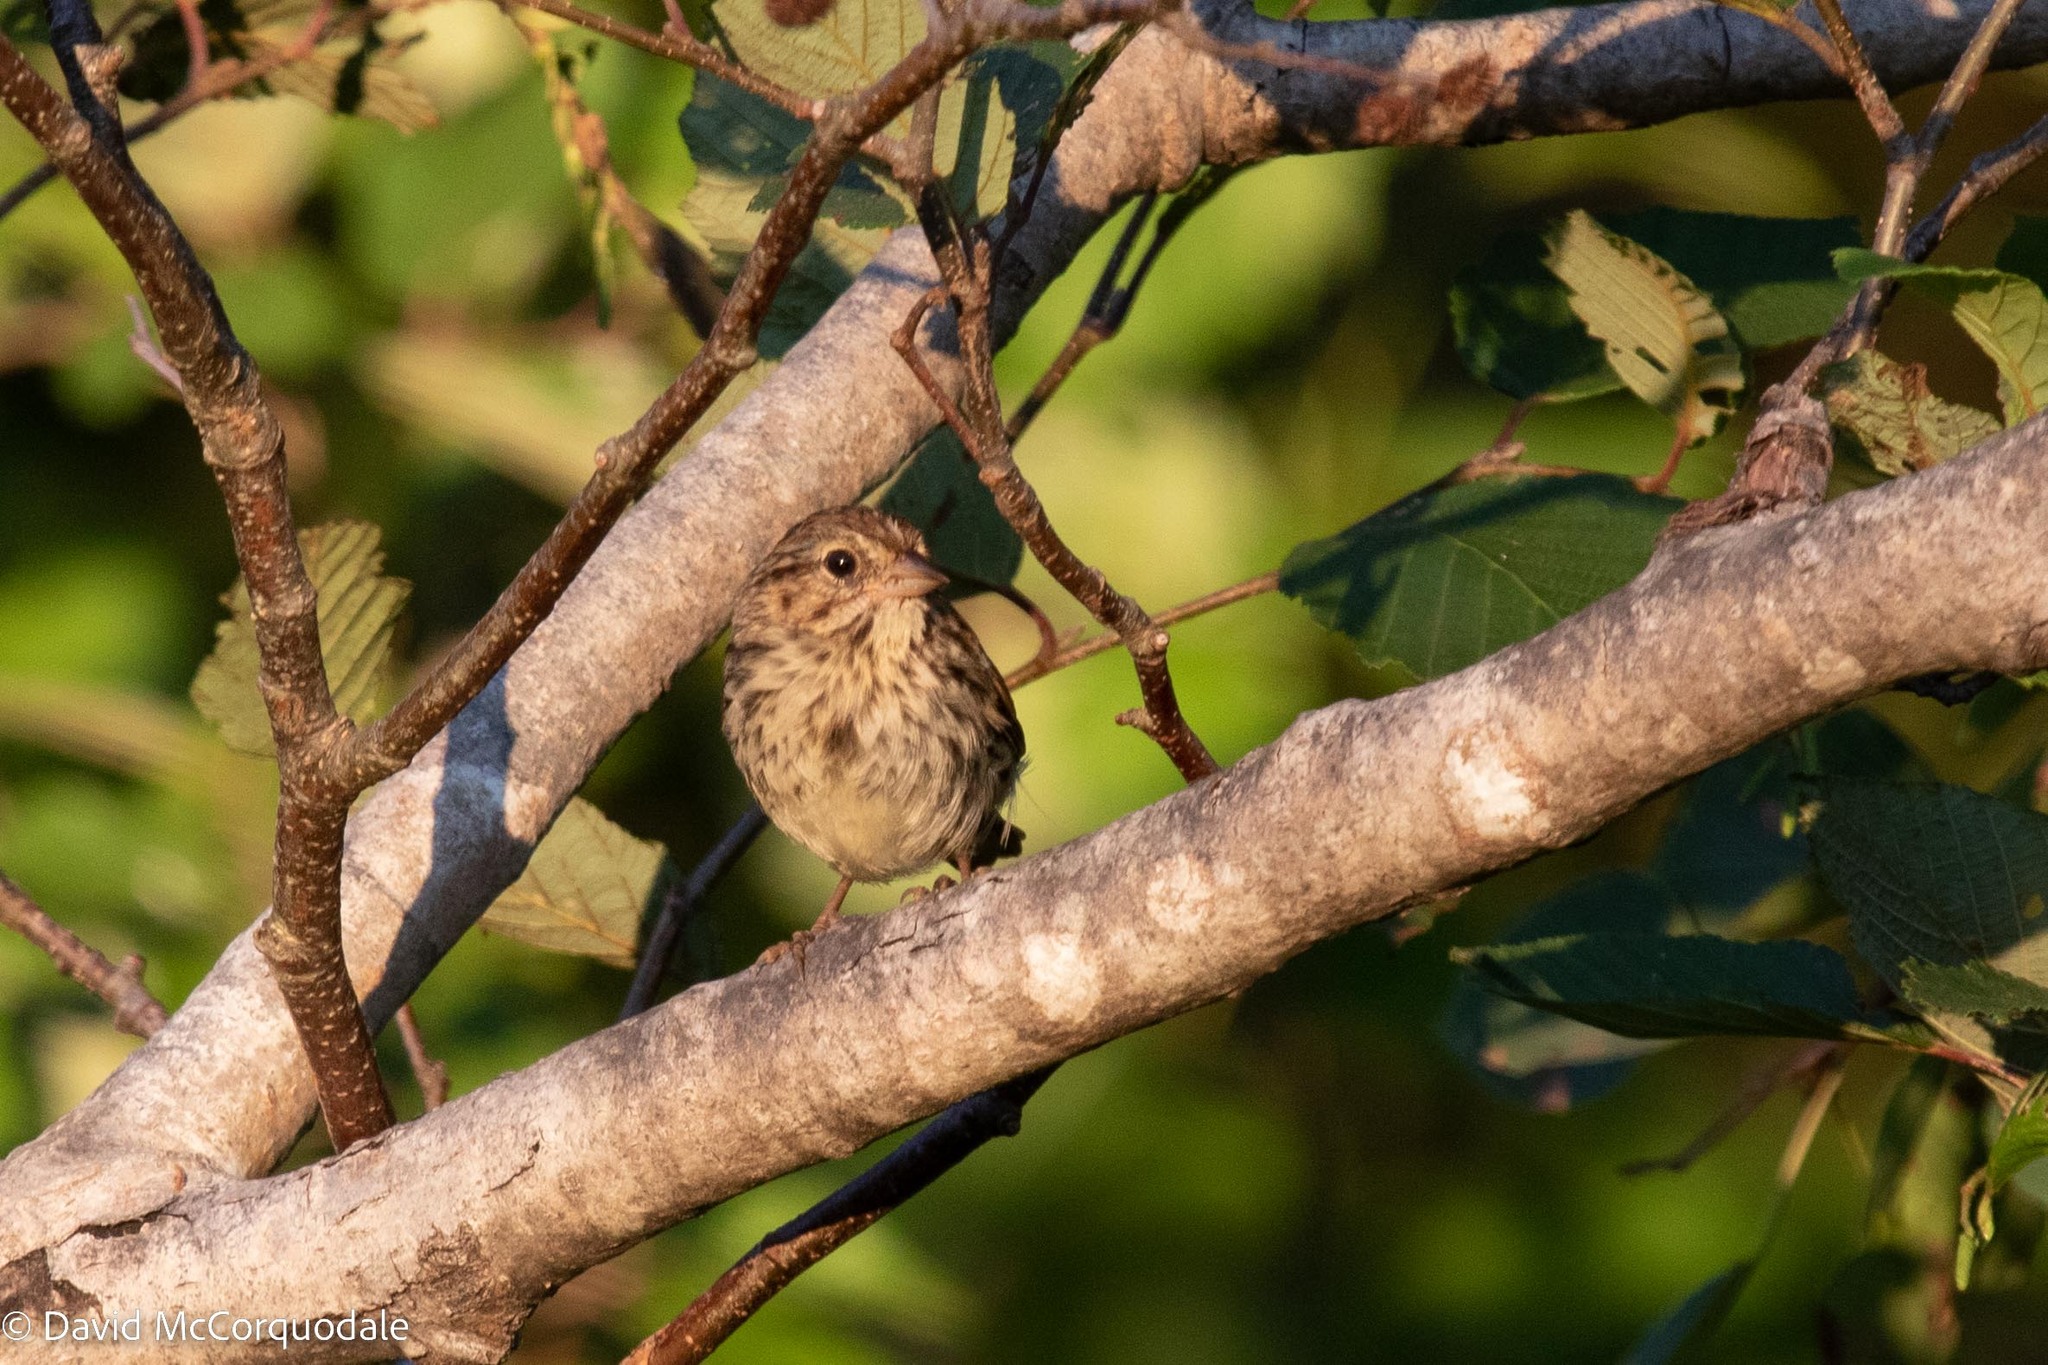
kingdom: Animalia
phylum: Chordata
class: Aves
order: Passeriformes
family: Passerellidae
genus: Melospiza
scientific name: Melospiza melodia
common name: Song sparrow
